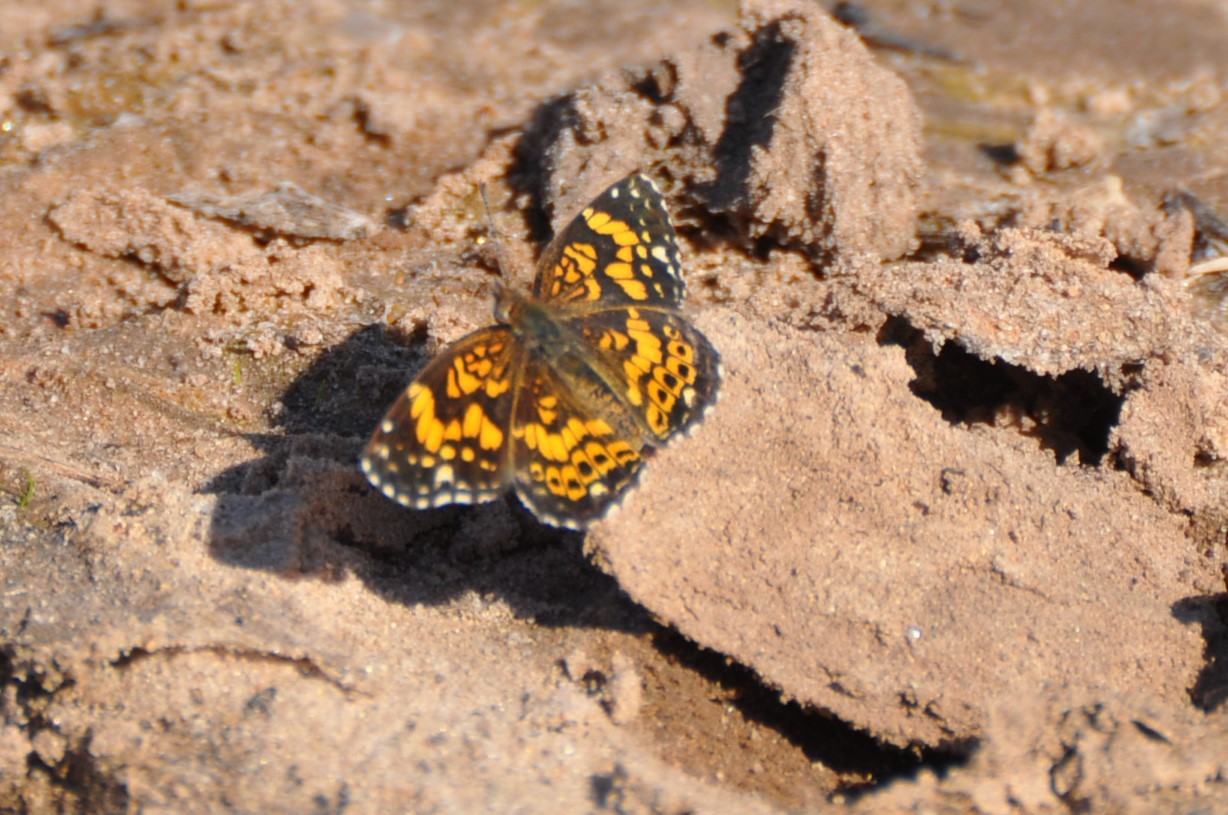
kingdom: Animalia
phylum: Arthropoda
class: Insecta
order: Lepidoptera
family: Nymphalidae
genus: Chlosyne
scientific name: Chlosyne gorgone
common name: Gorgone checkerspot
